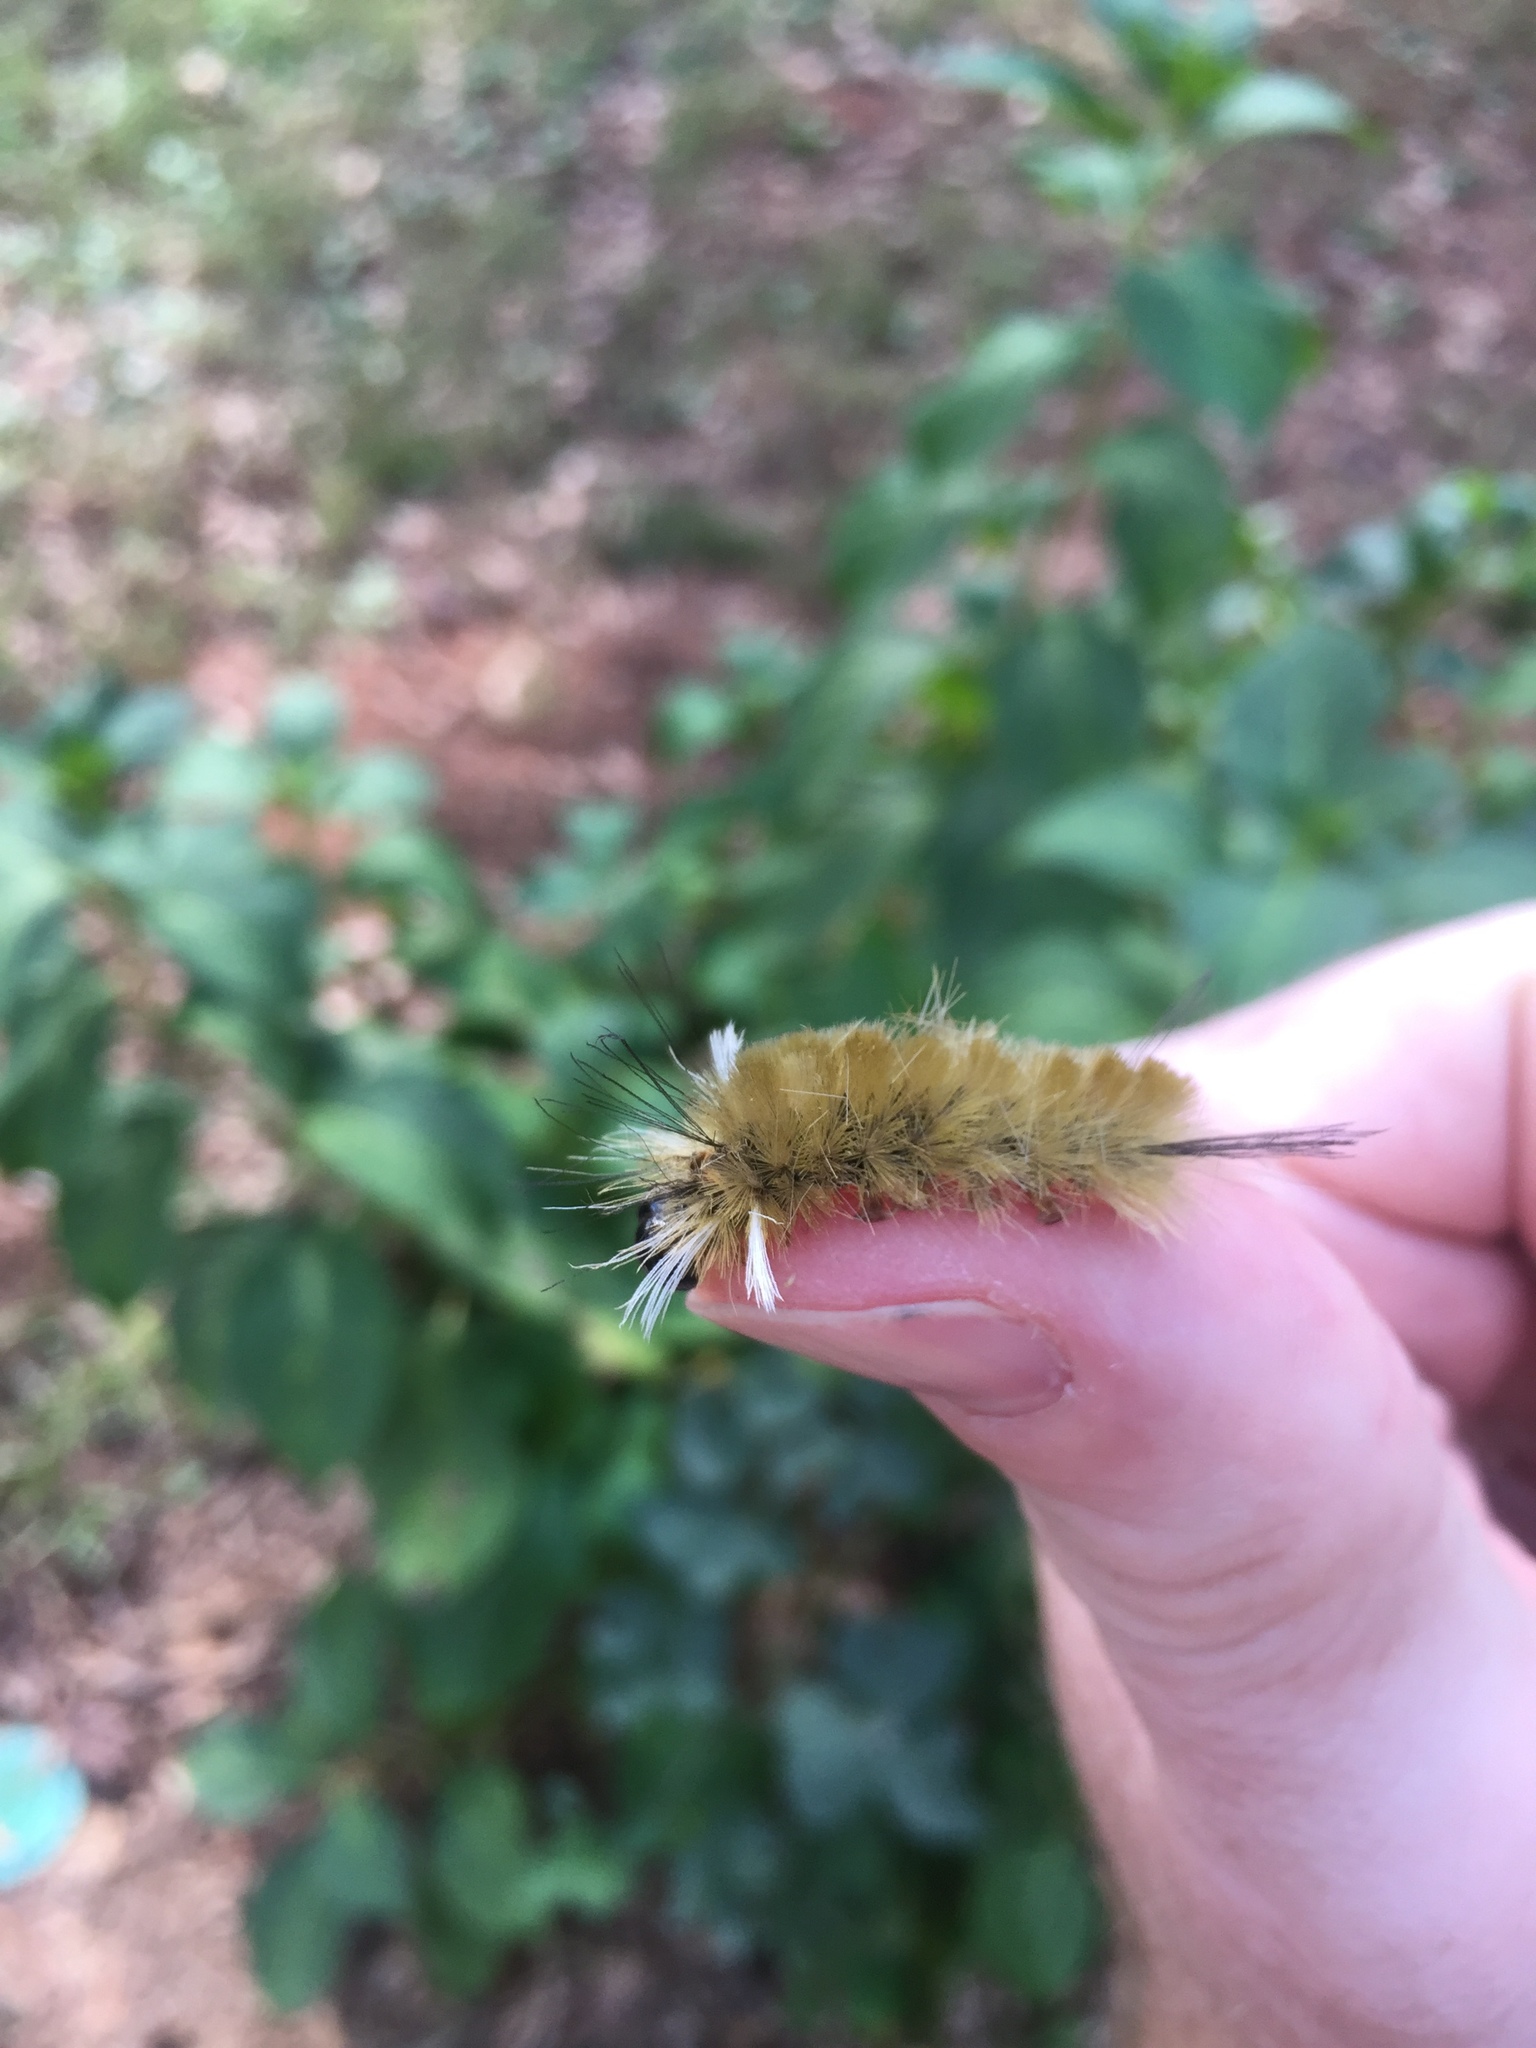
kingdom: Animalia
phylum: Arthropoda
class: Insecta
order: Lepidoptera
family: Erebidae
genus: Halysidota
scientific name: Halysidota tessellaris
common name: Banded tussock moth
